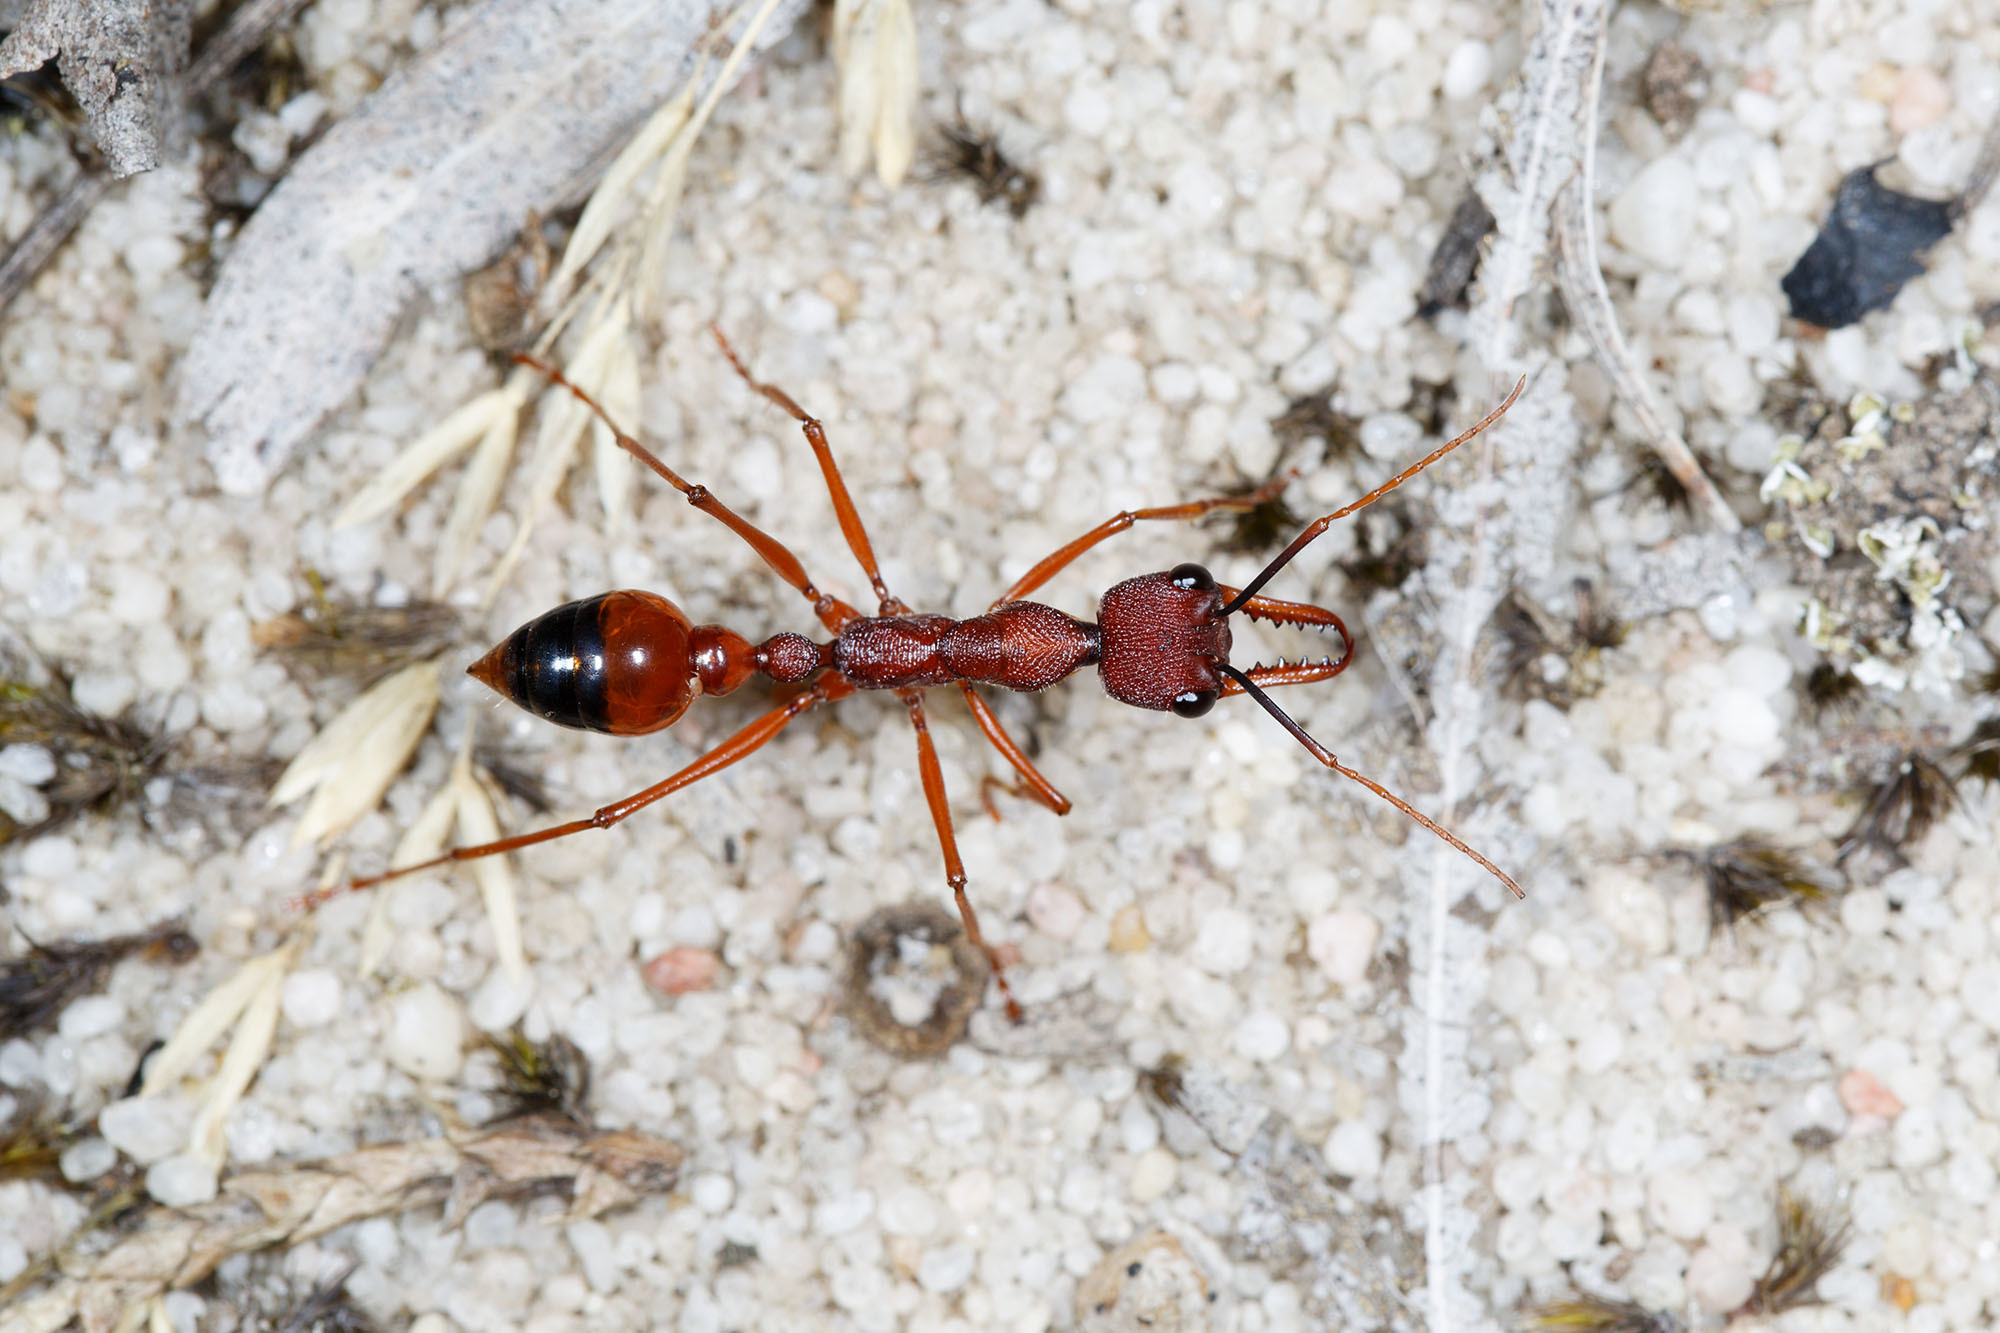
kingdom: Animalia
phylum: Arthropoda
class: Insecta
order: Hymenoptera
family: Formicidae
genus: Myrmecia
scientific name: Myrmecia nigriscapa
